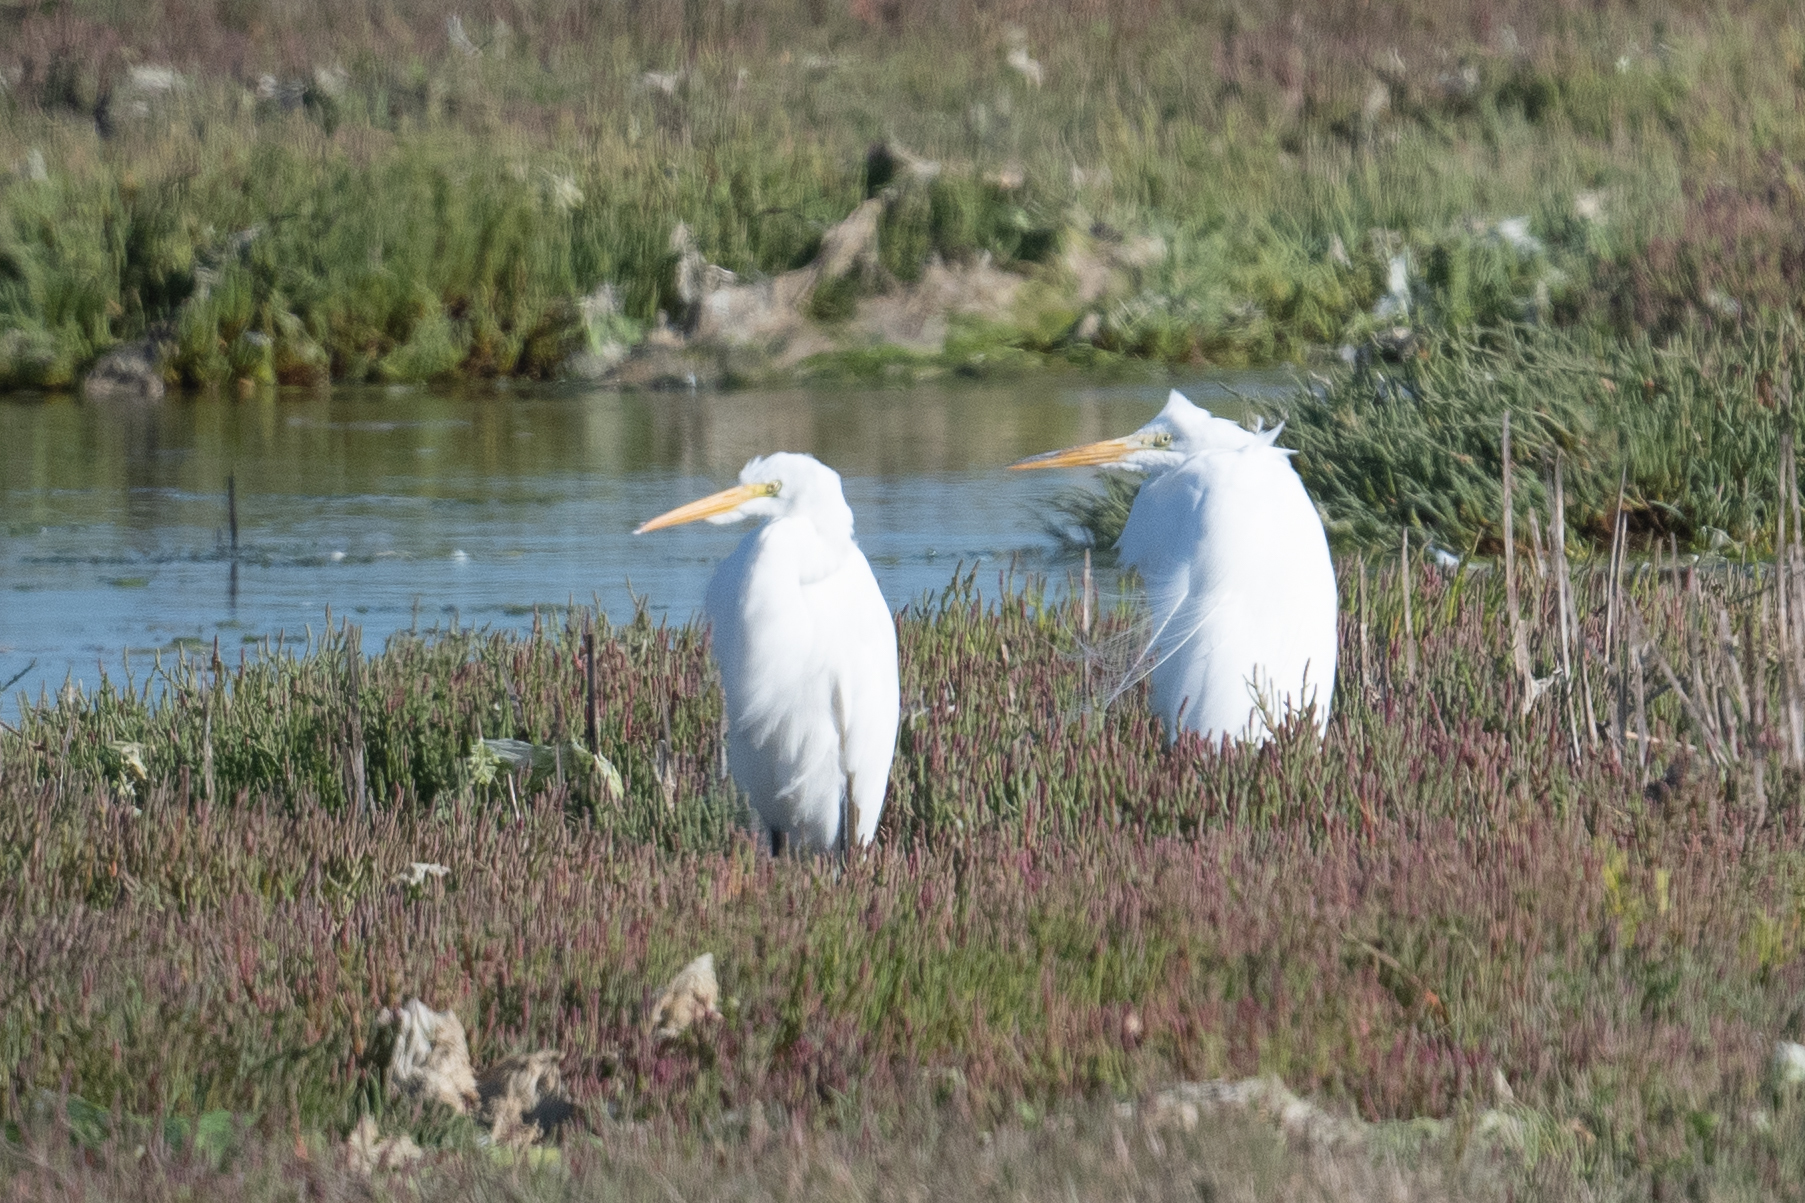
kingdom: Animalia
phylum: Chordata
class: Aves
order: Pelecaniformes
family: Ardeidae
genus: Ardea
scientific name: Ardea alba
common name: Great egret
